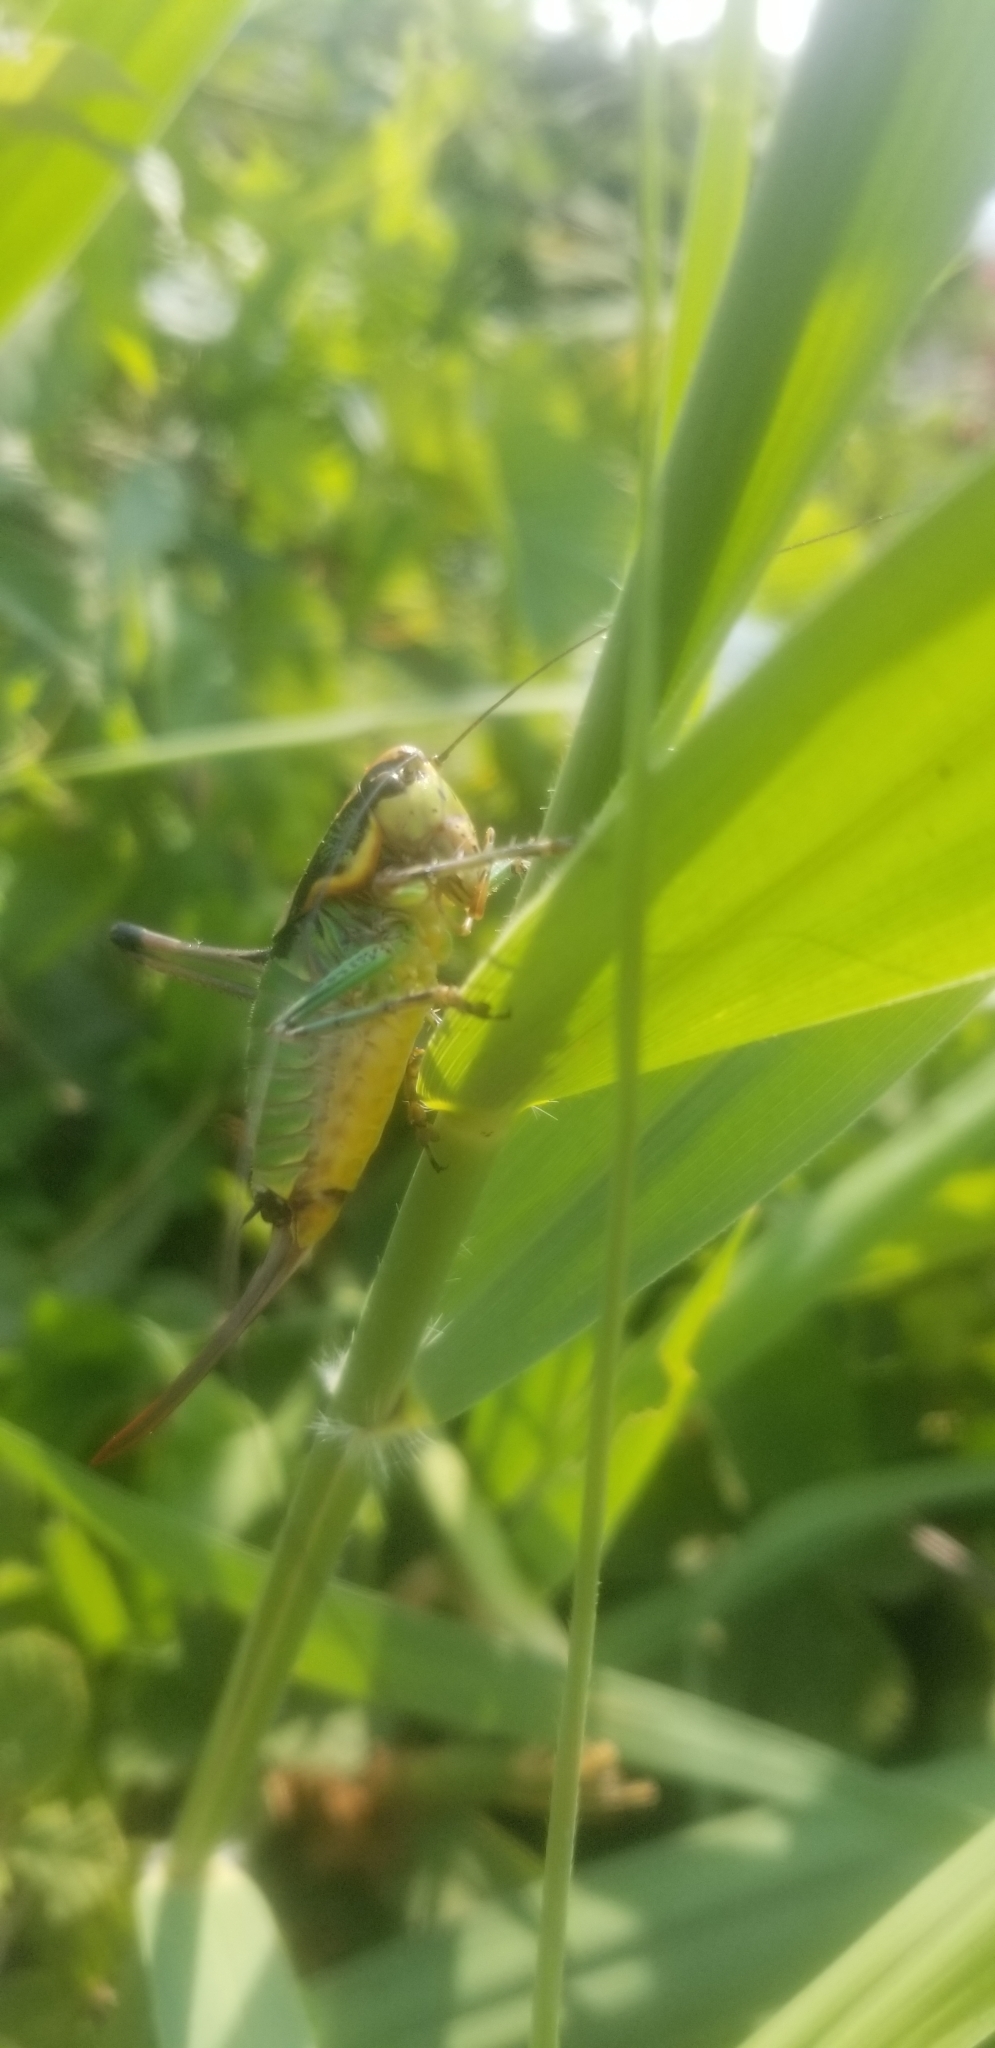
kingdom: Animalia
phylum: Arthropoda
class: Insecta
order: Orthoptera
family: Tettigoniidae
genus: Eupholidoptera
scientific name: Eupholidoptera schmidti
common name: Schmidt's marbled bush-cricket
